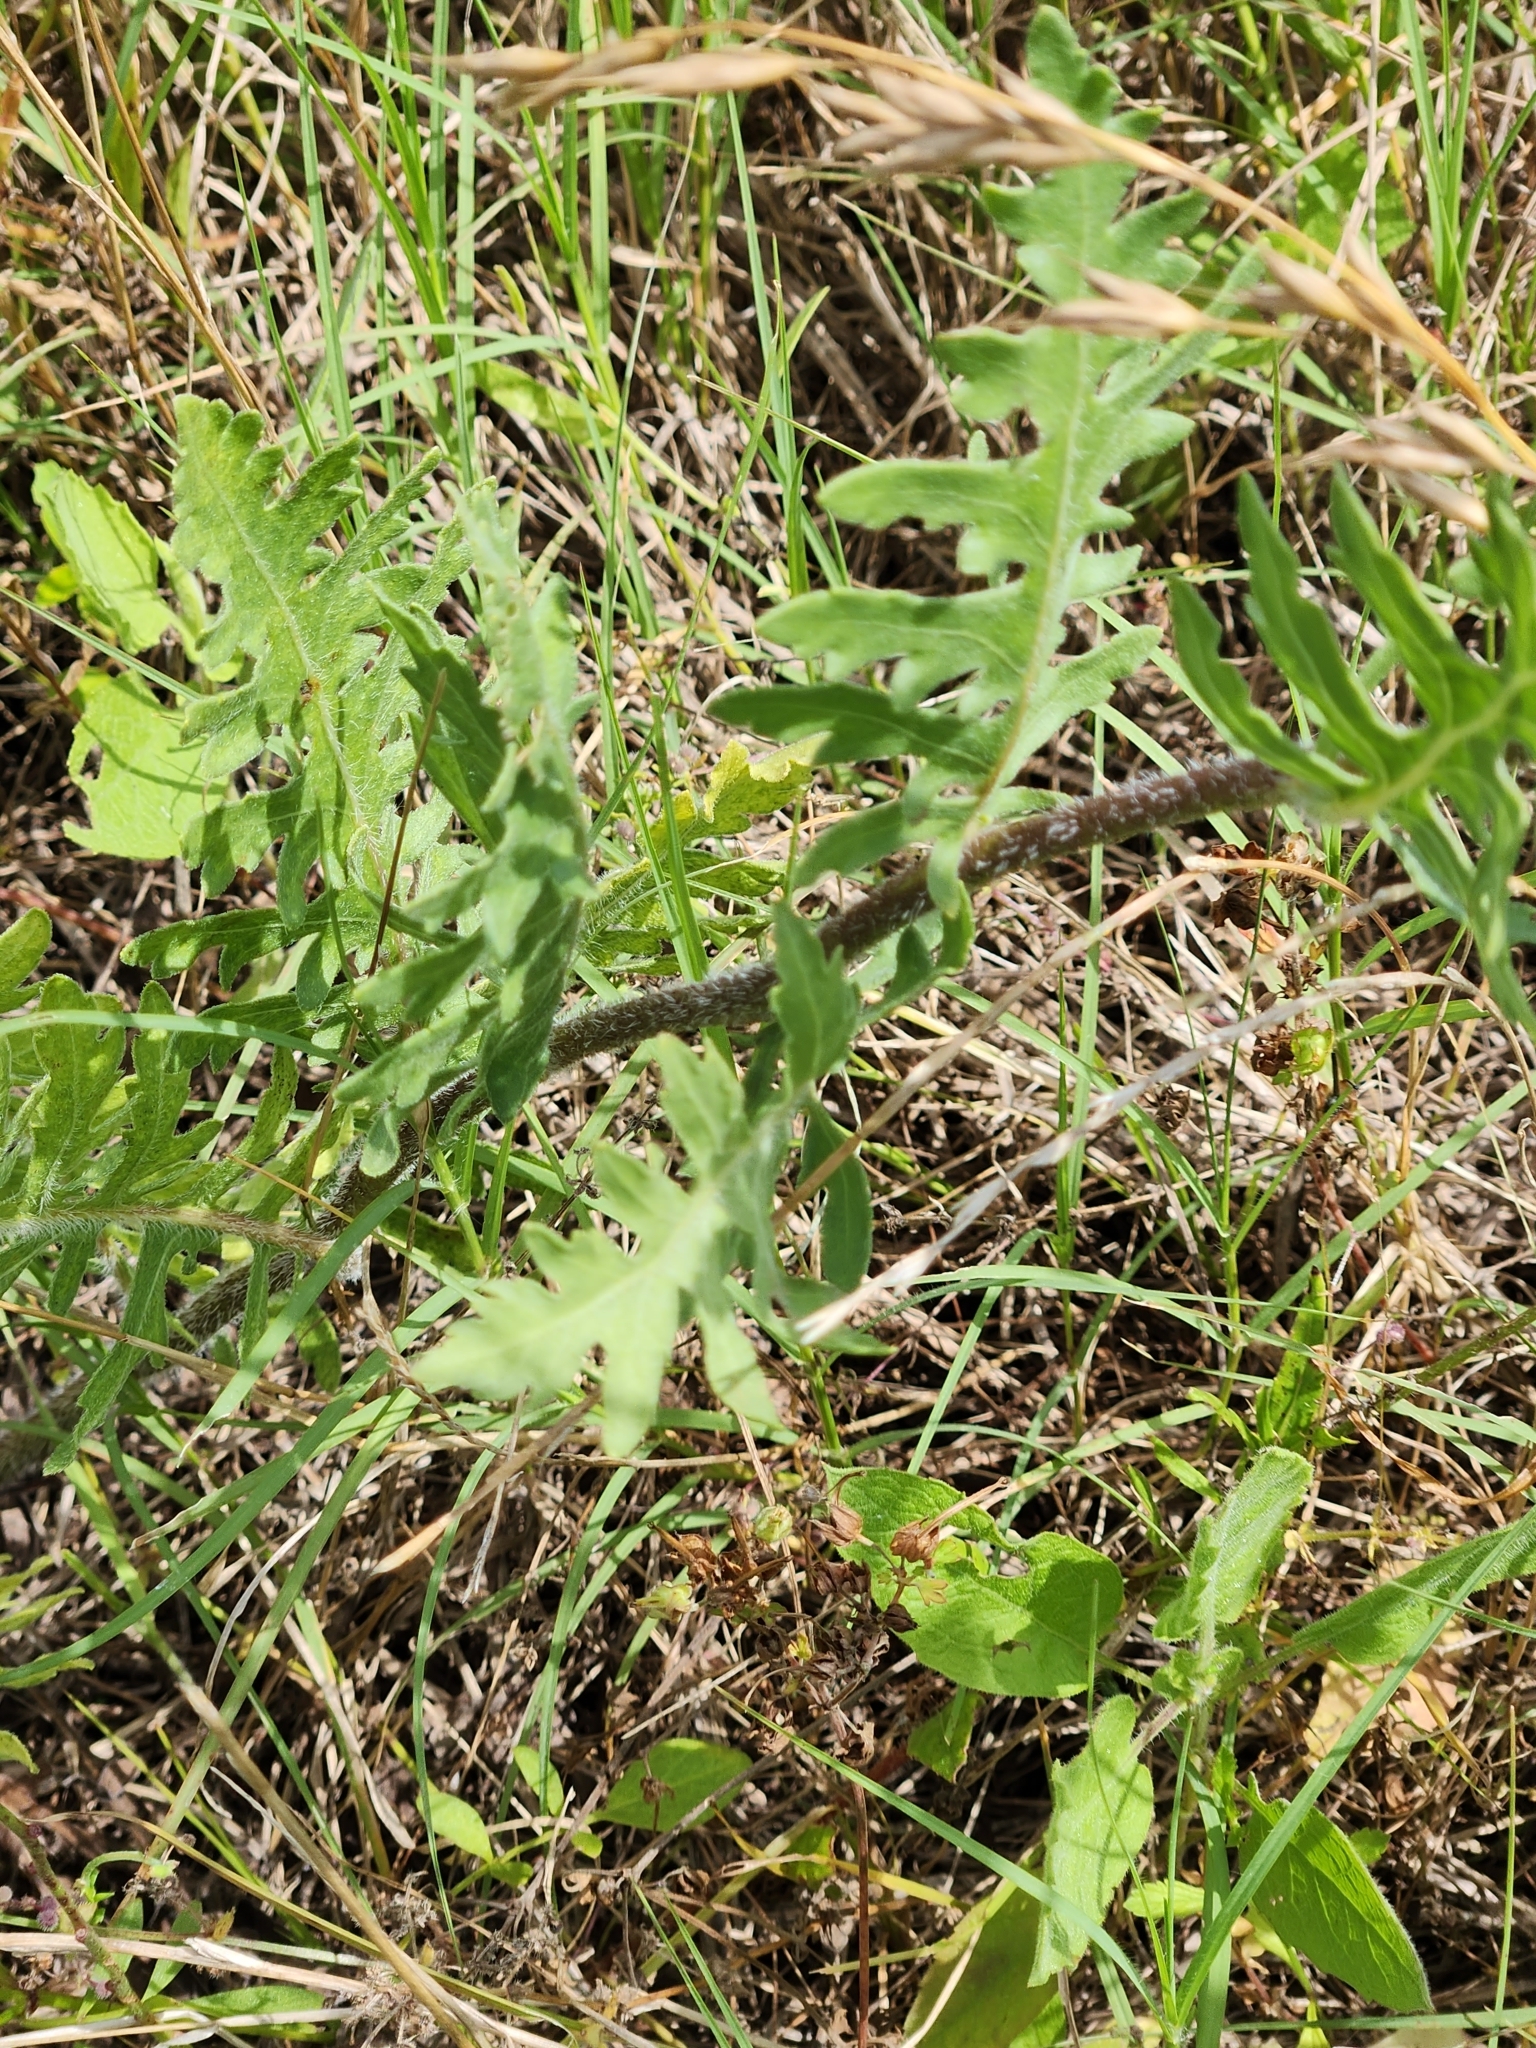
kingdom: Plantae
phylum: Tracheophyta
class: Magnoliopsida
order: Asterales
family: Asteraceae
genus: Engelmannia
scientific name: Engelmannia peristenia
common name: Engelmann's daisy
